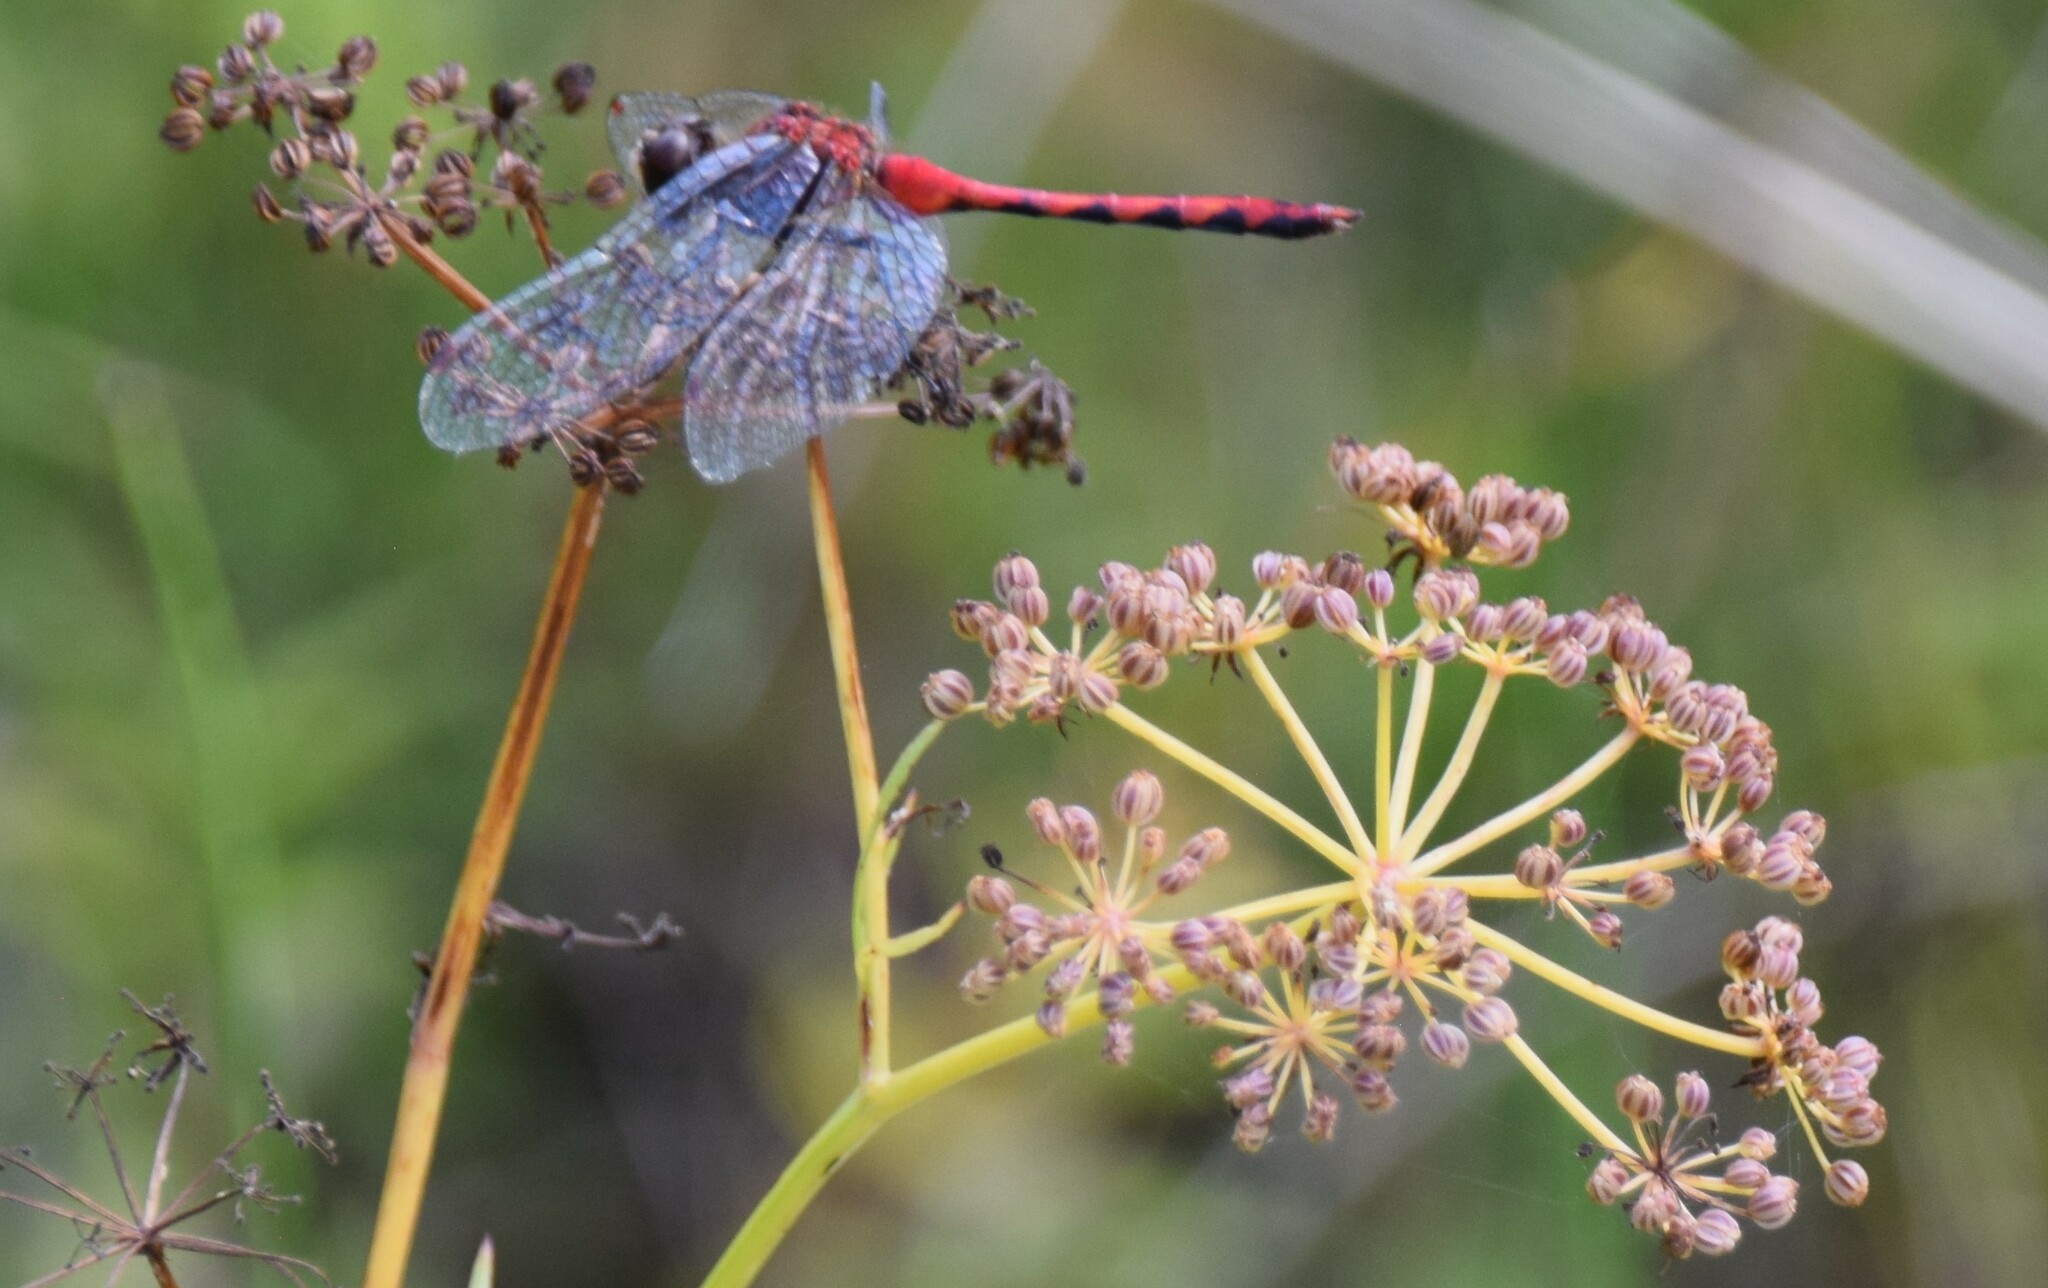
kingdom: Animalia
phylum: Arthropoda
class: Insecta
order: Odonata
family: Libellulidae
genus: Sympetrum
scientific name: Sympetrum obtrusum
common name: White-faced meadowhawk
